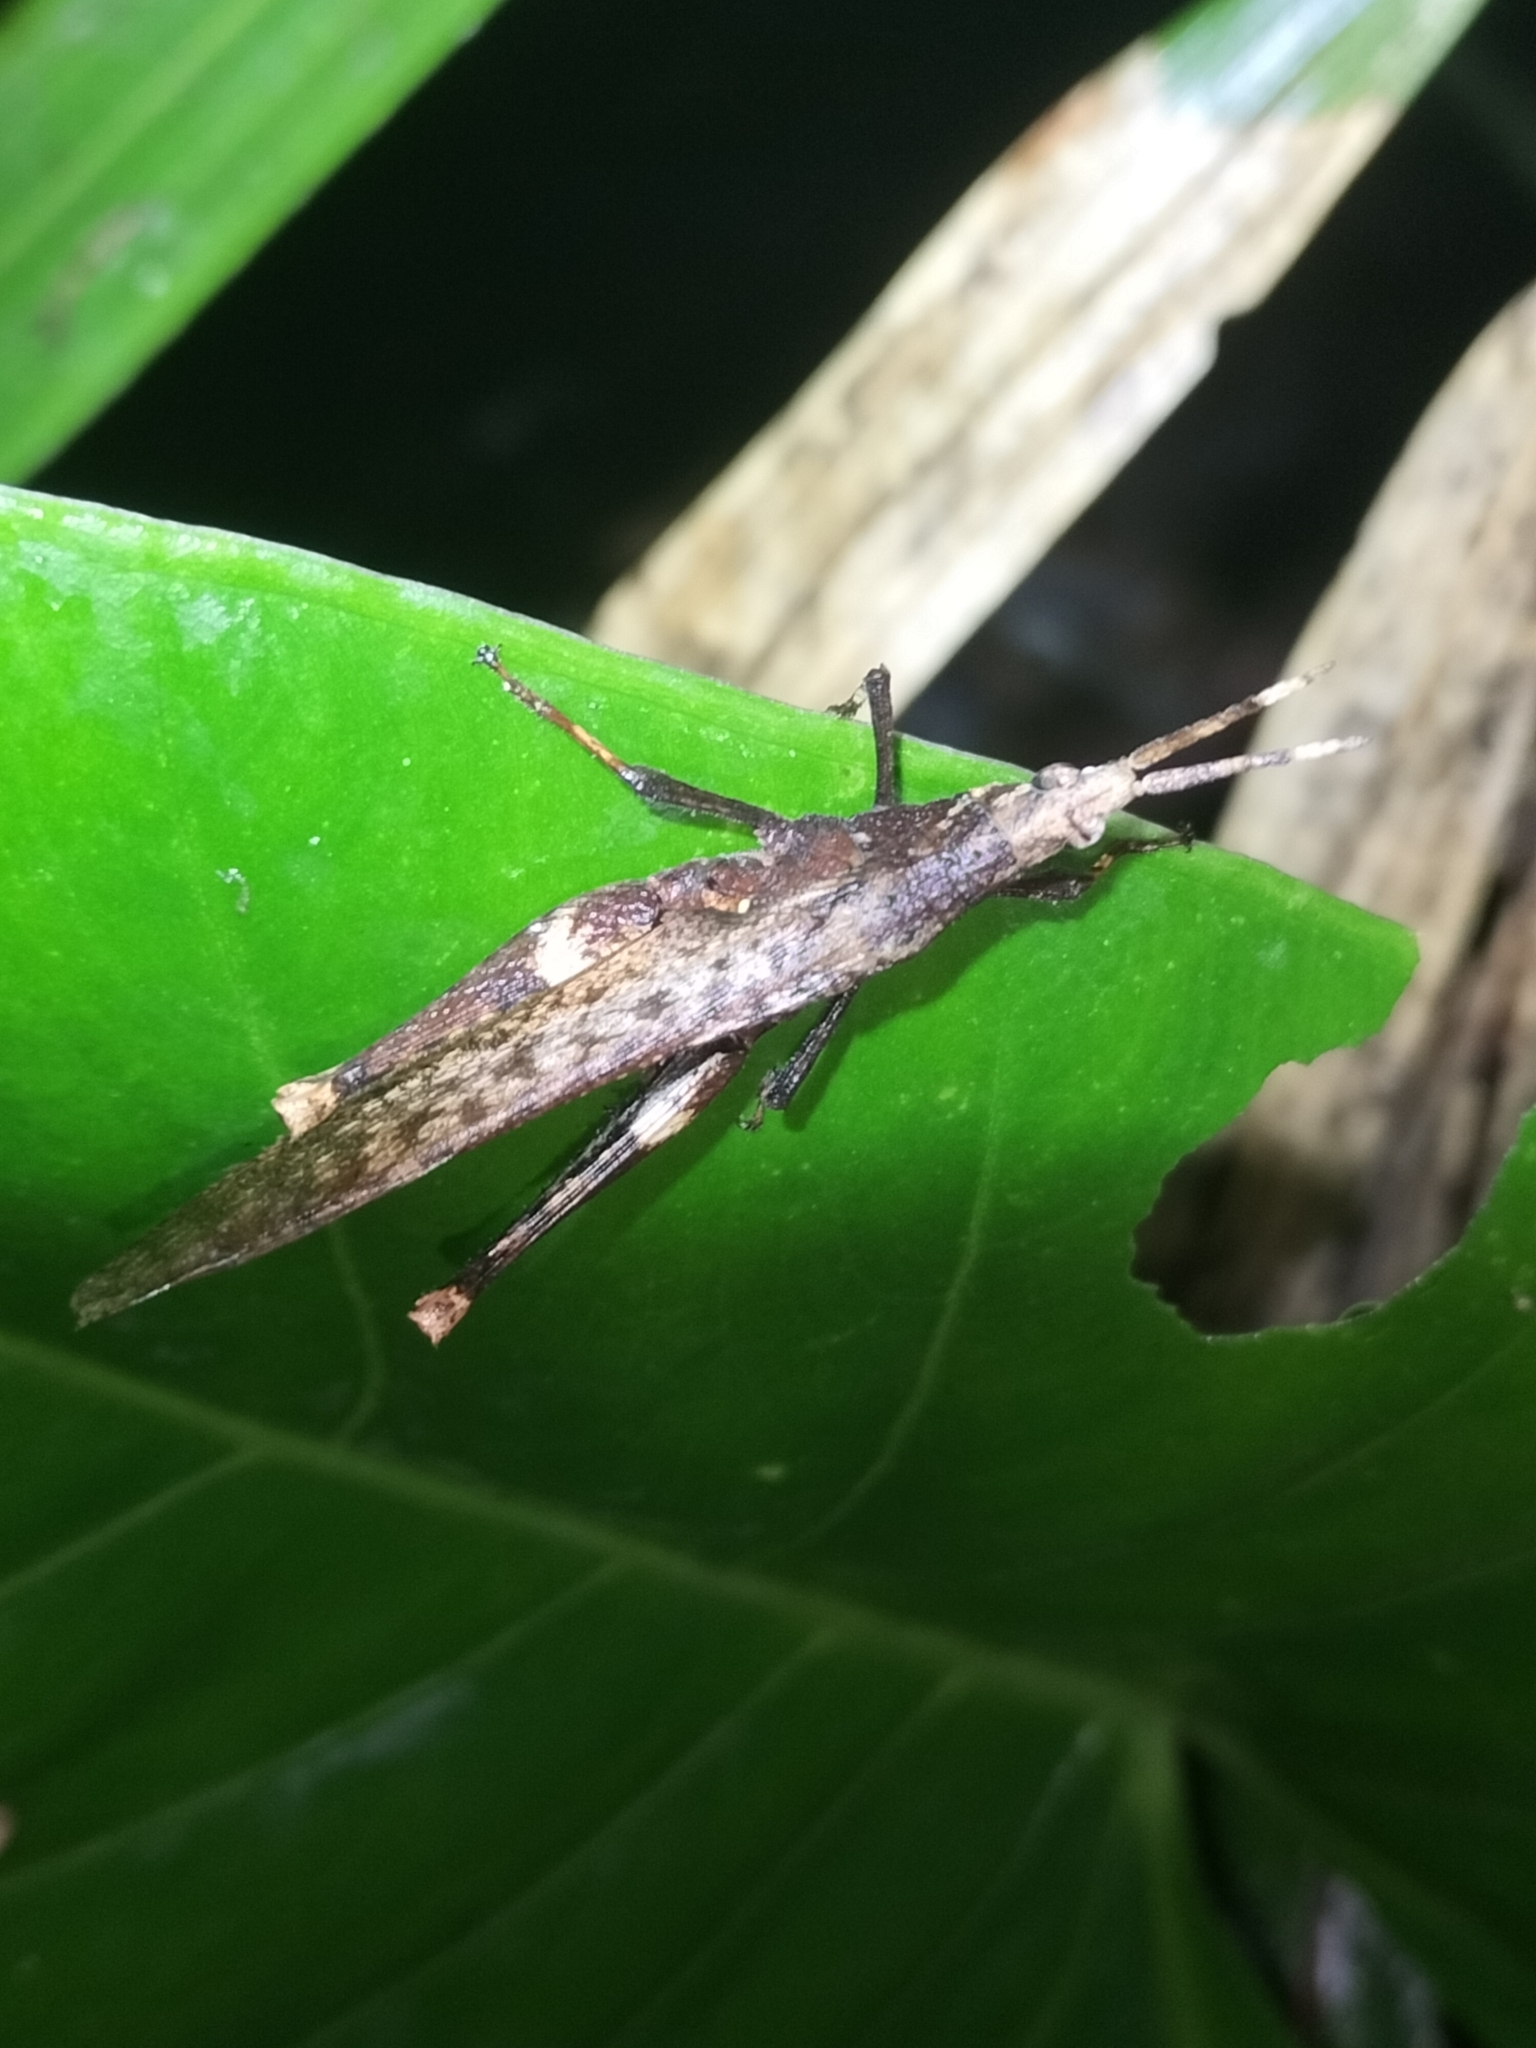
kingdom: Animalia
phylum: Arthropoda
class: Insecta
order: Orthoptera
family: Pyrgomorphidae
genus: Desmoptera
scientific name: Desmoptera truncatipennis
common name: Large forest pyrgomorph
